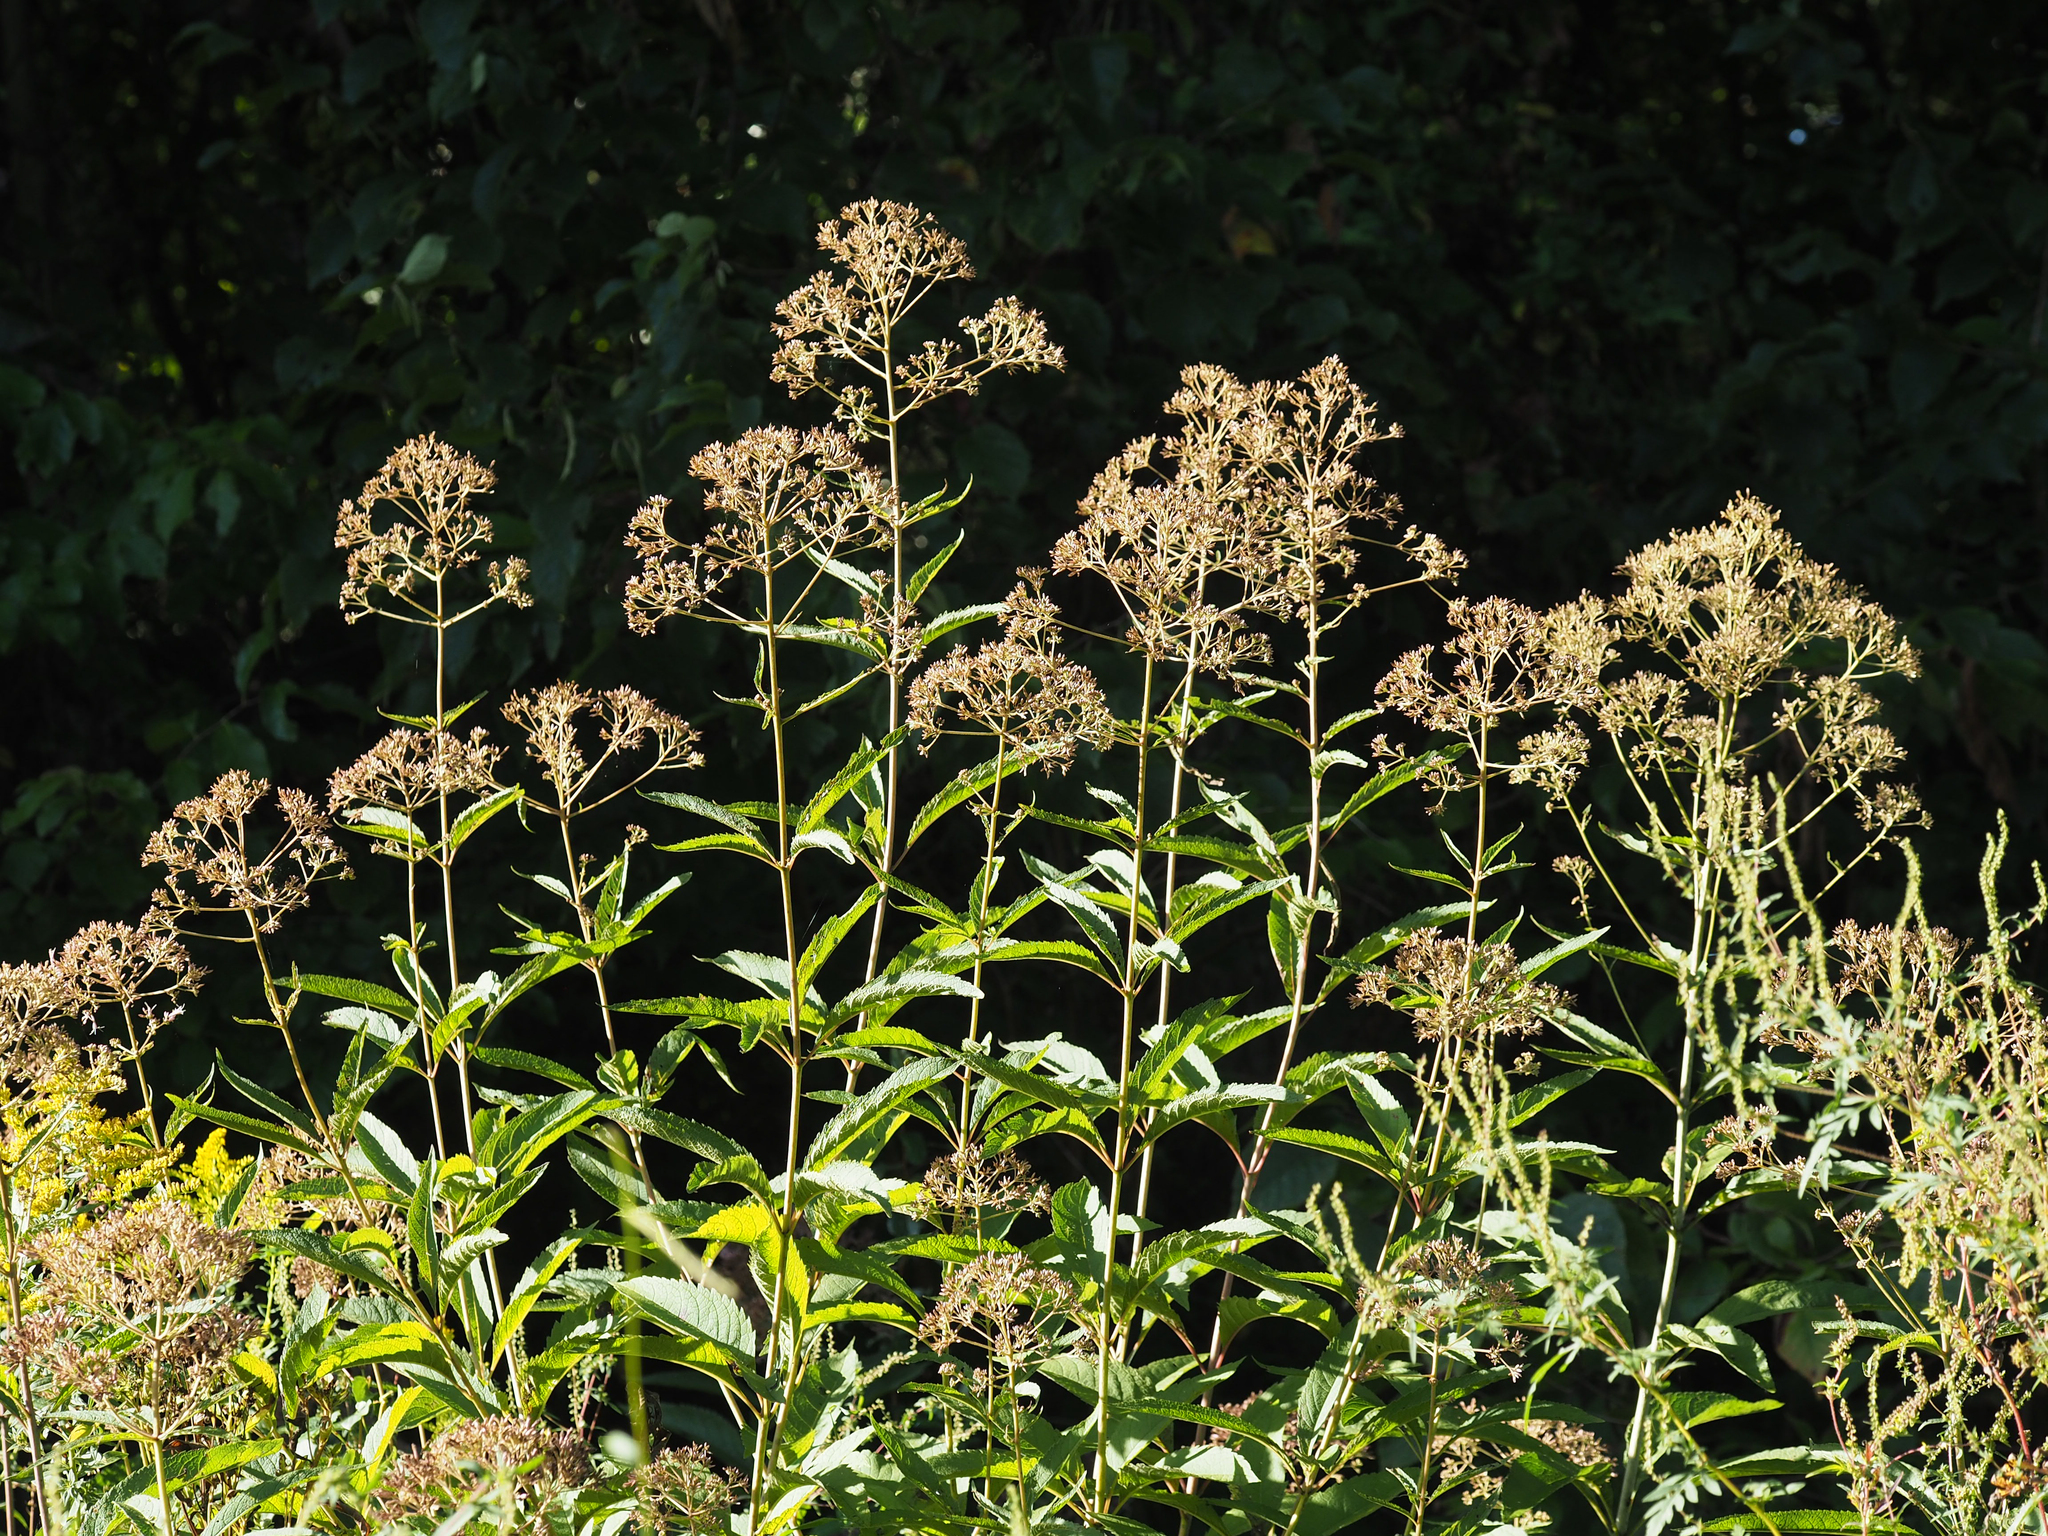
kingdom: Plantae
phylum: Tracheophyta
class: Magnoliopsida
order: Asterales
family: Asteraceae
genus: Eutrochium
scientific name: Eutrochium fistulosum
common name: Trumpetweed
